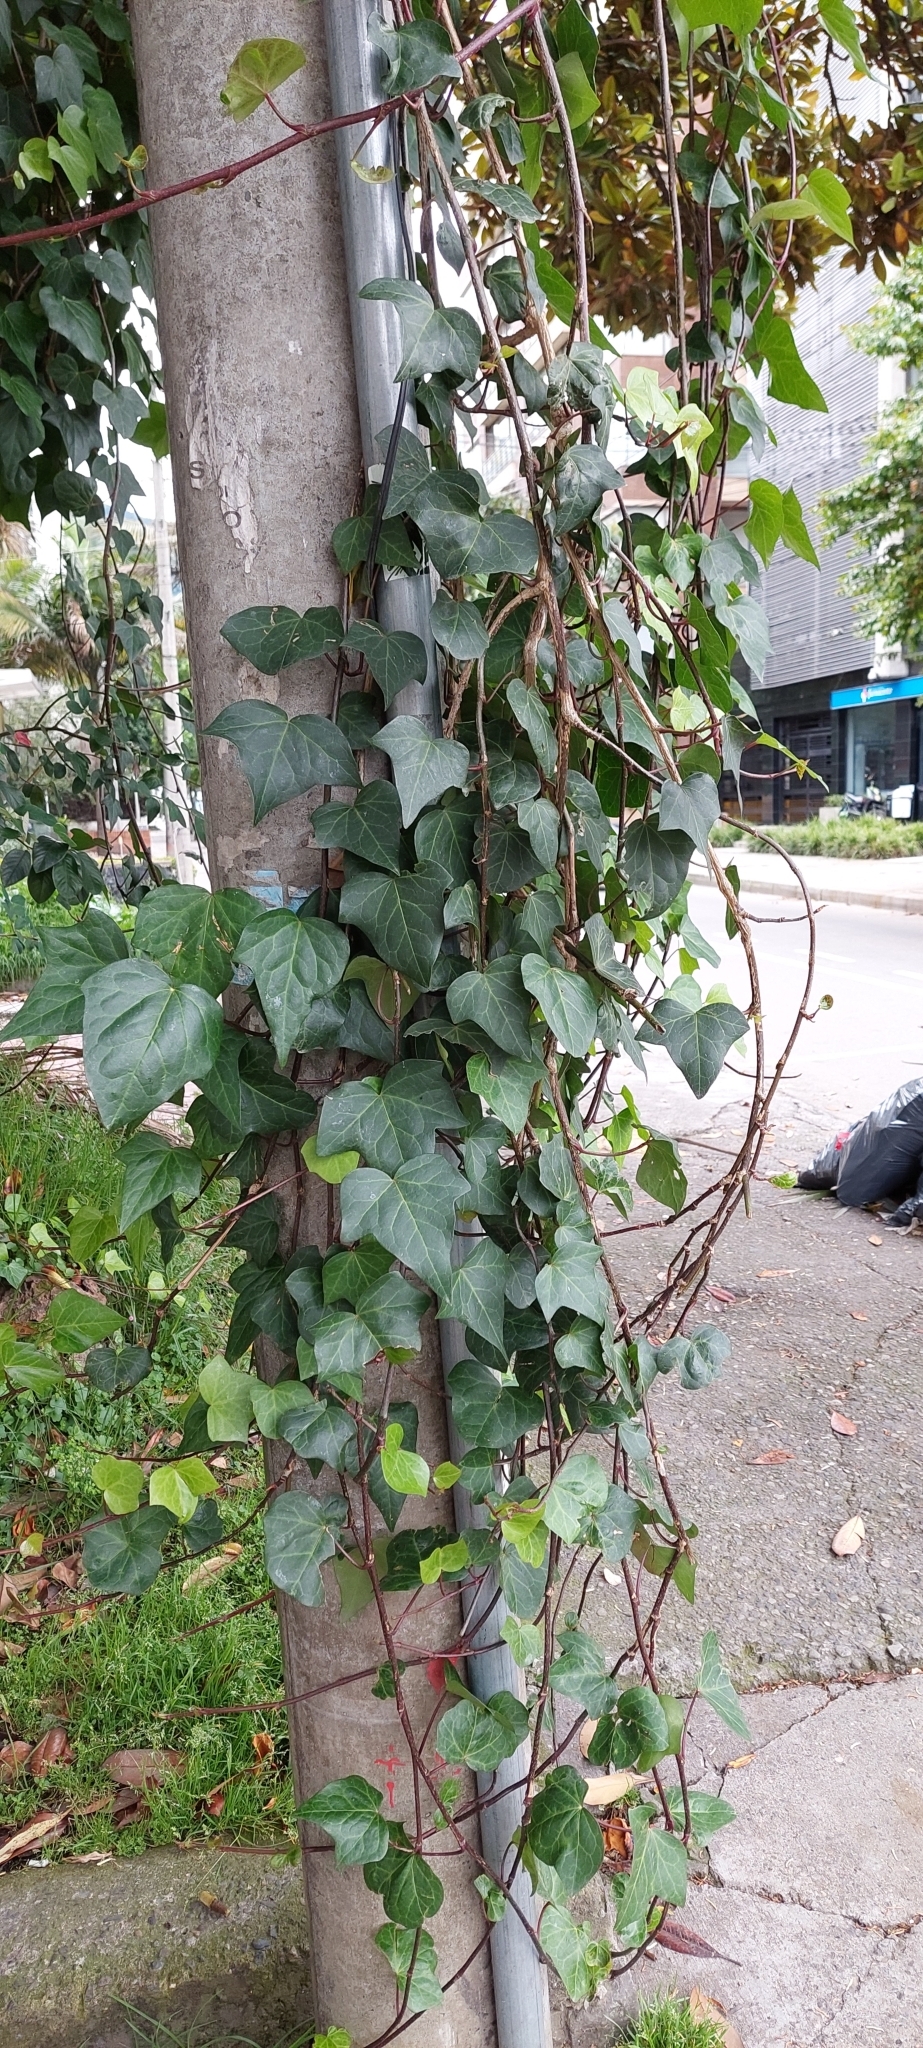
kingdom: Plantae
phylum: Tracheophyta
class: Magnoliopsida
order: Apiales
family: Araliaceae
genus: Hedera
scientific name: Hedera helix
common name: Ivy
